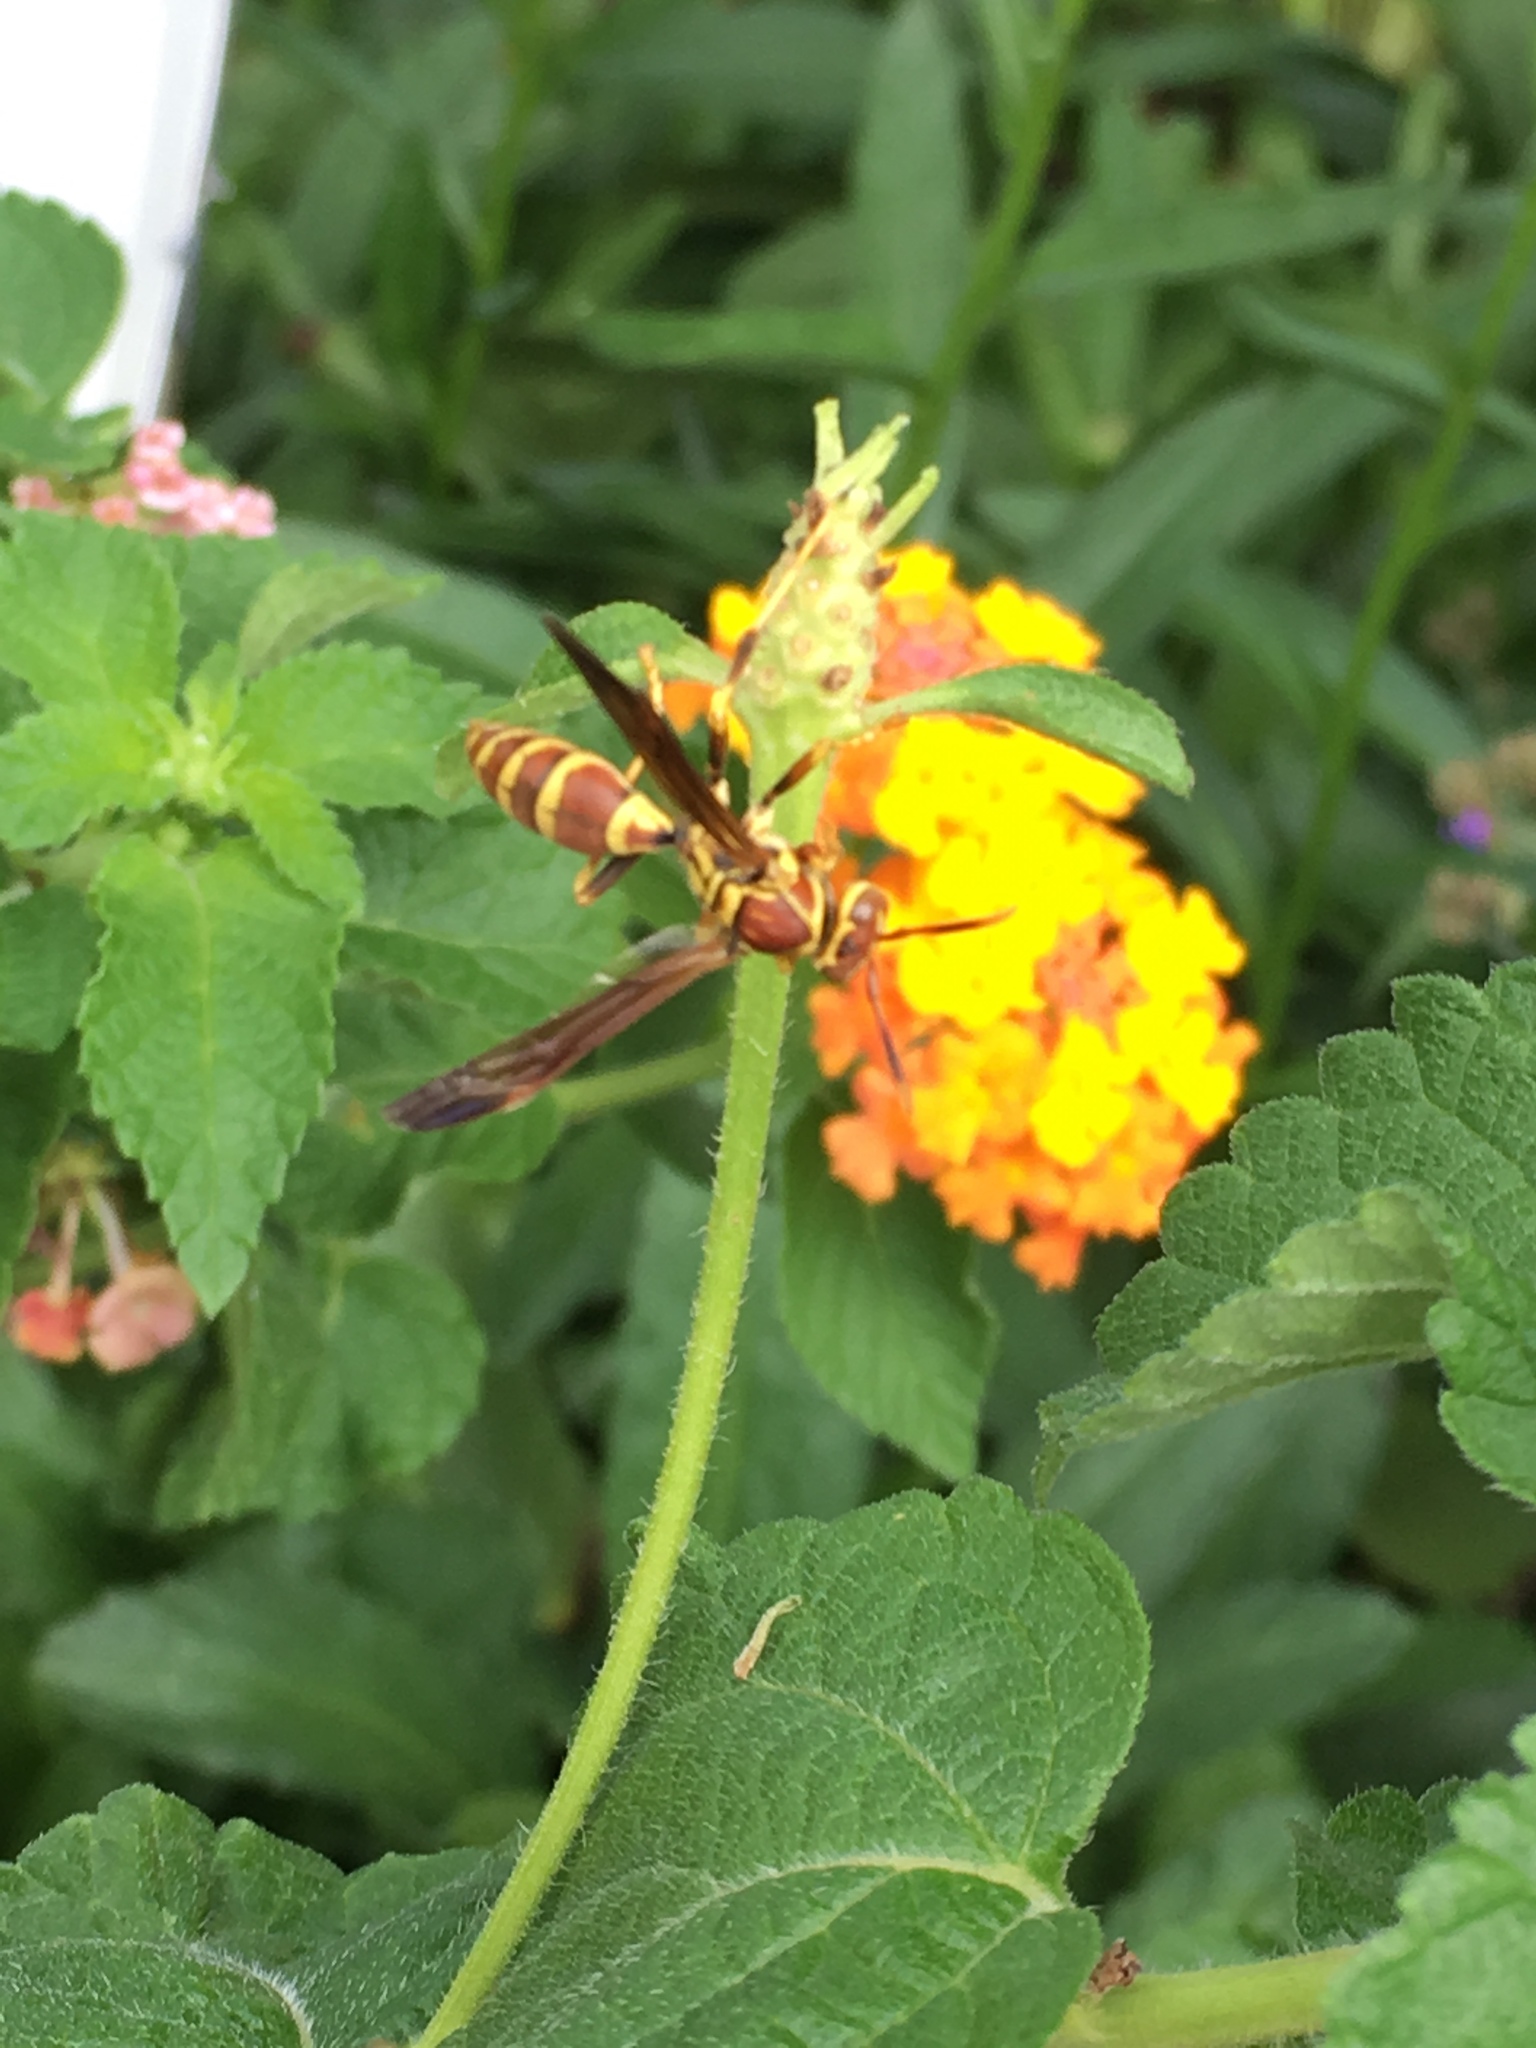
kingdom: Animalia
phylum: Arthropoda
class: Insecta
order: Hymenoptera
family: Eumenidae
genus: Polistes
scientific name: Polistes exclamans
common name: Paper wasp
